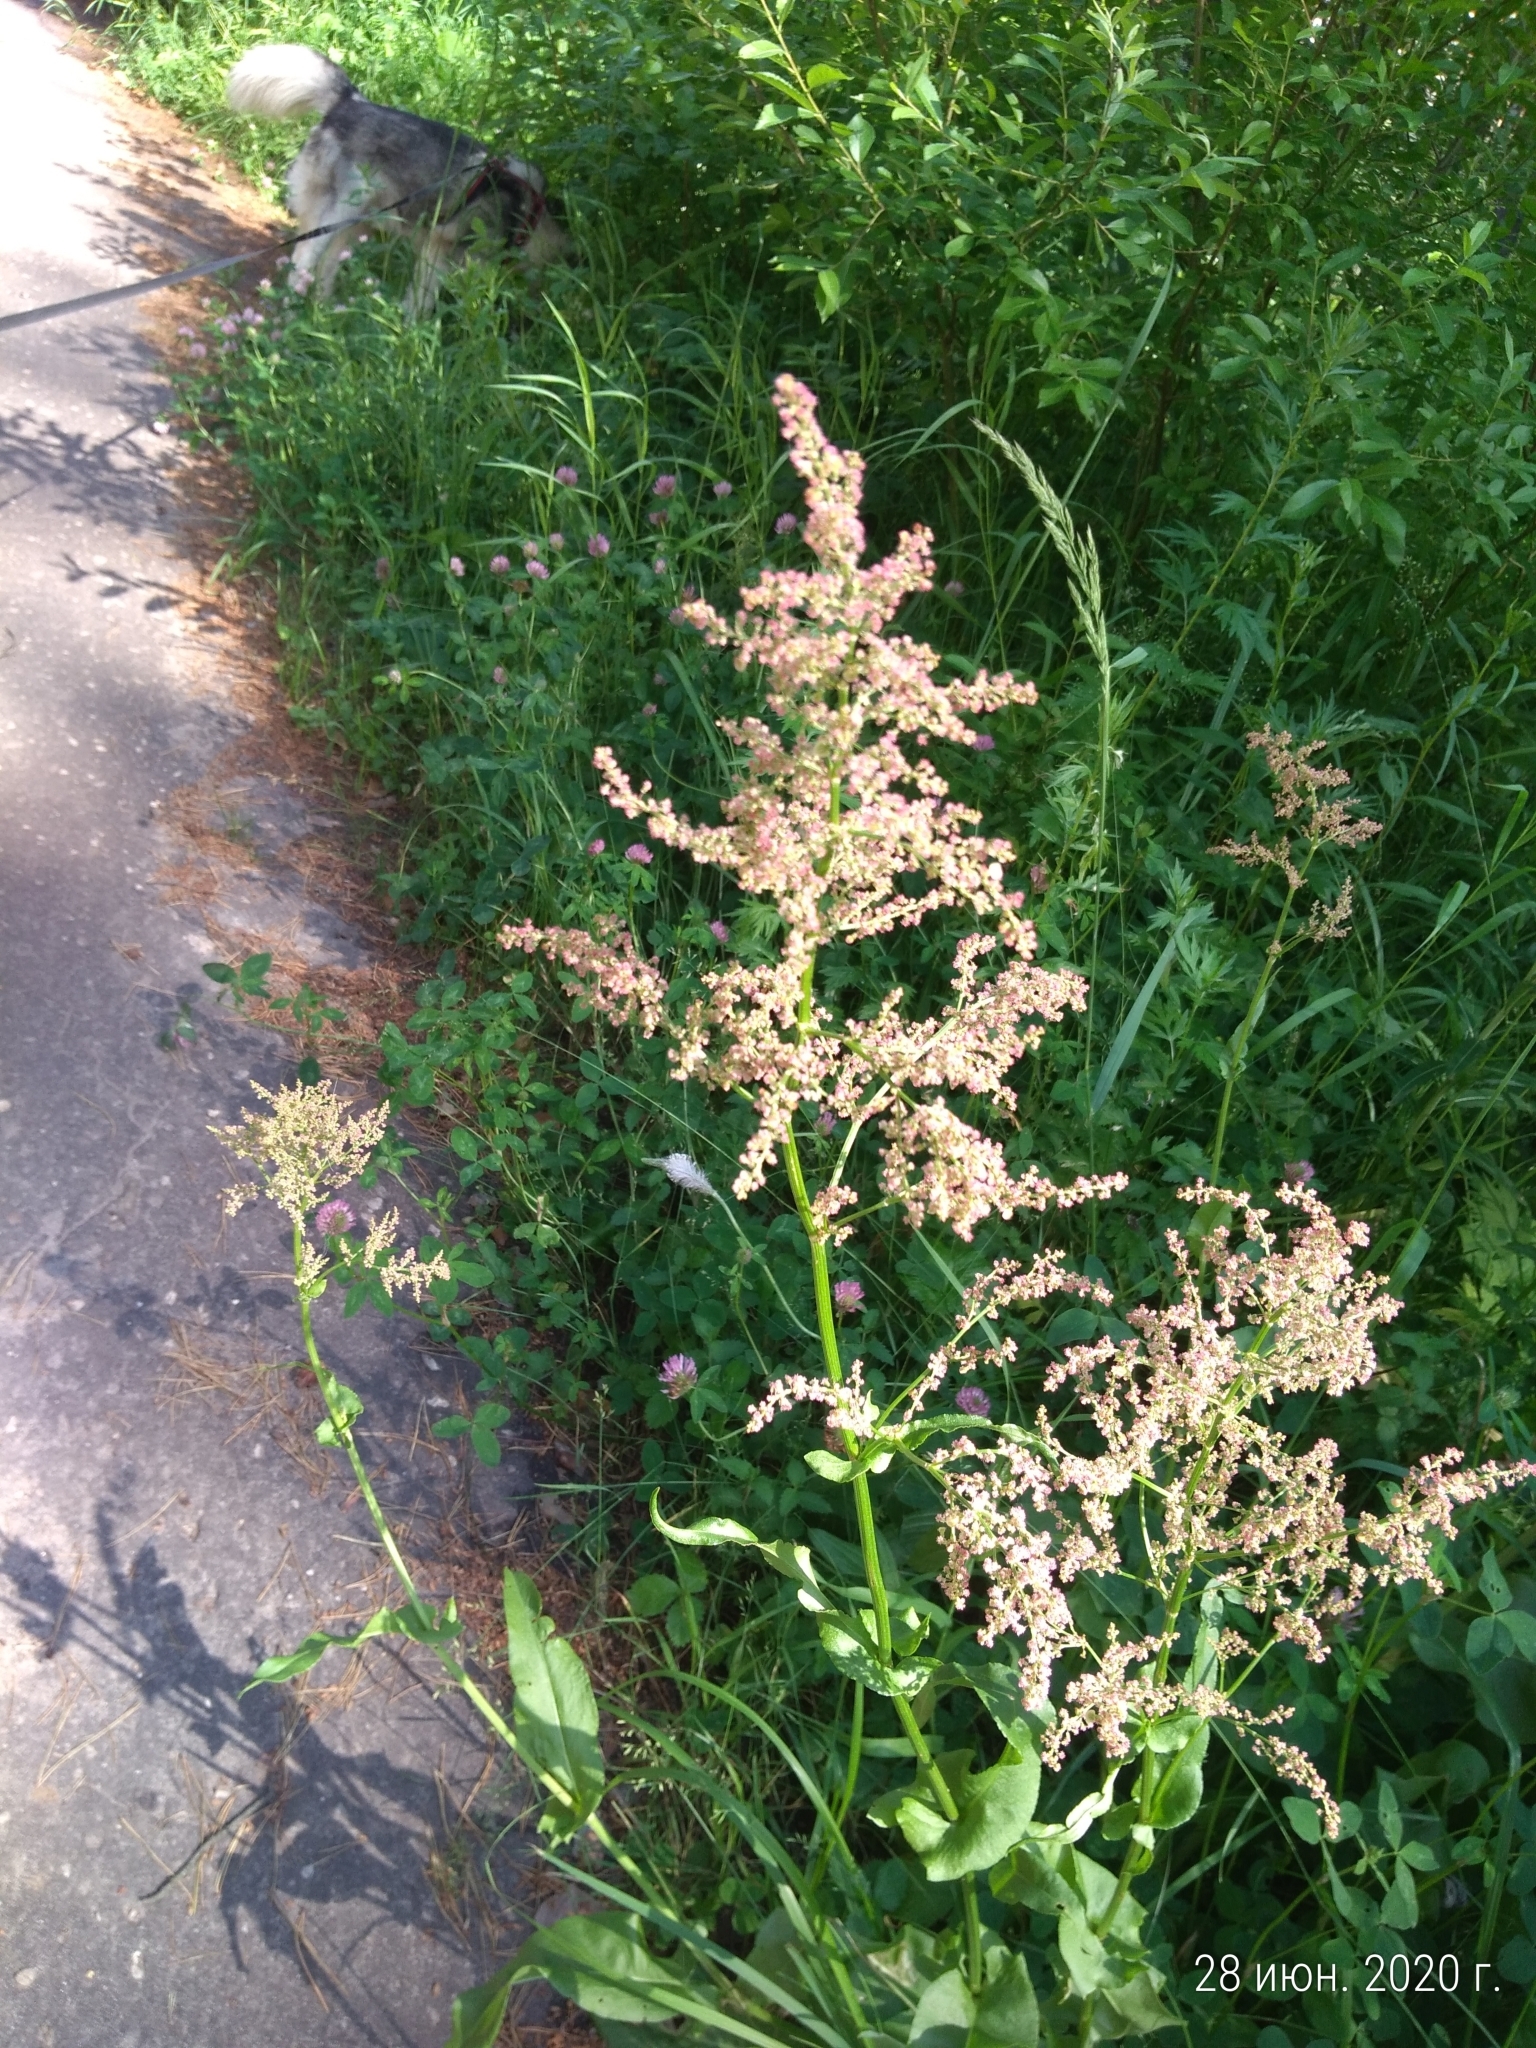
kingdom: Plantae
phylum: Tracheophyta
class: Magnoliopsida
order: Caryophyllales
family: Polygonaceae
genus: Rumex
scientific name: Rumex acetosa
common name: Garden sorrel
